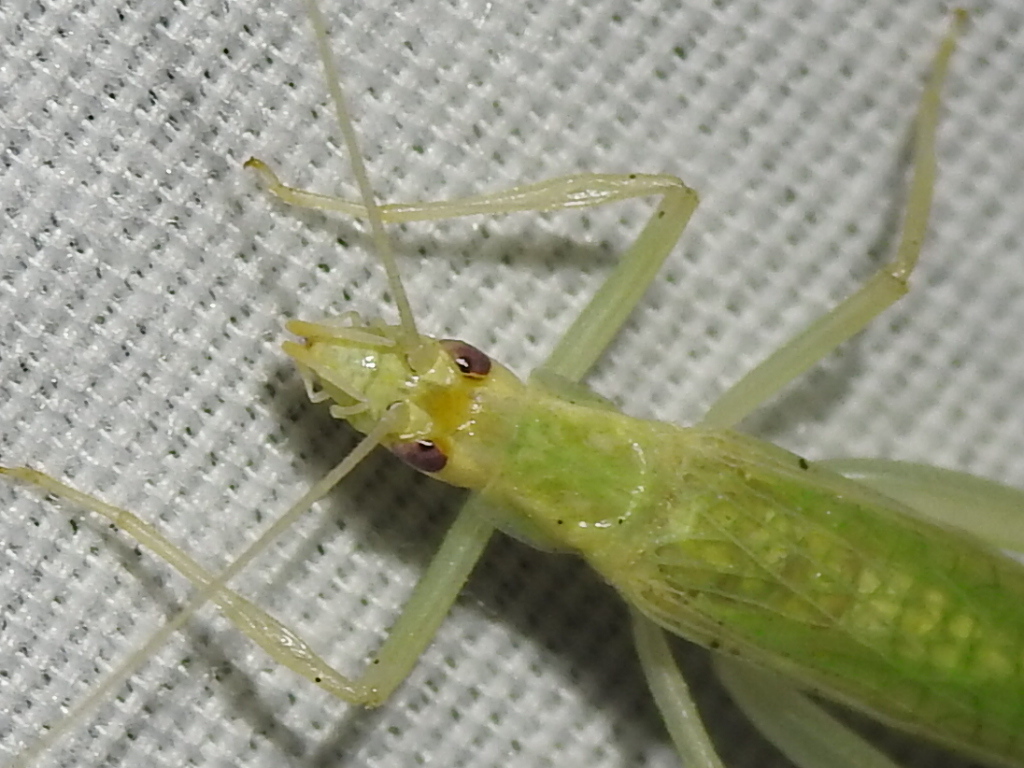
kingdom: Animalia
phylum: Arthropoda
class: Insecta
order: Orthoptera
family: Gryllidae
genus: Oecanthus
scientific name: Oecanthus niveus
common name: Narrow-winged tree cricket
